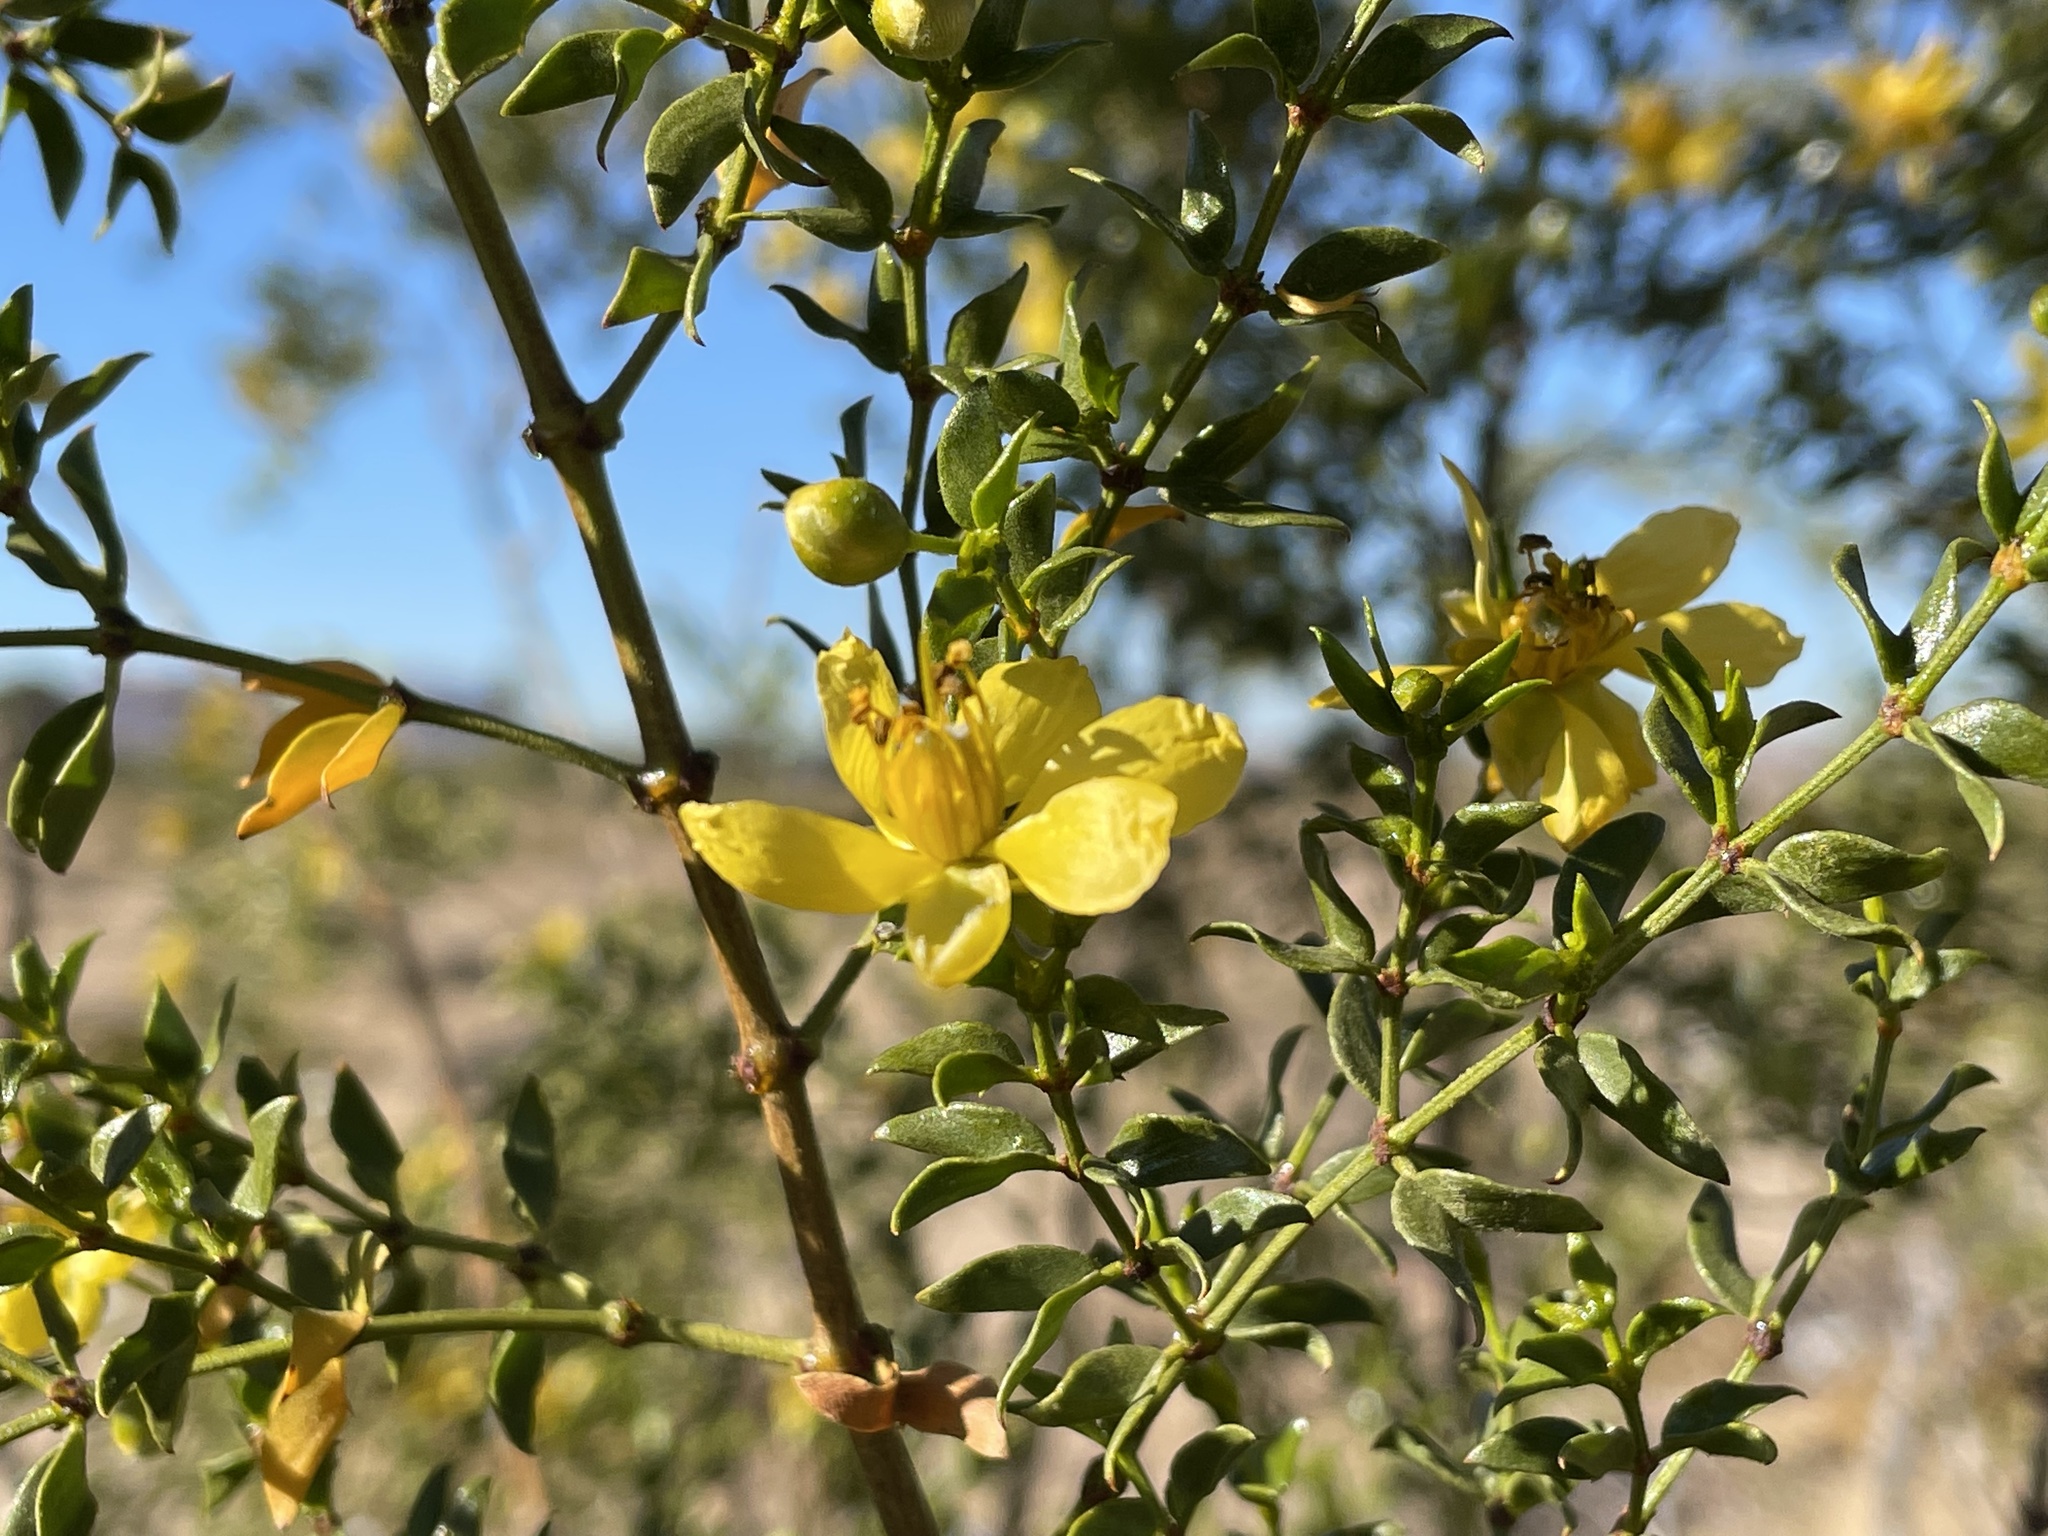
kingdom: Plantae
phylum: Tracheophyta
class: Magnoliopsida
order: Zygophyllales
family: Zygophyllaceae
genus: Larrea
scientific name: Larrea tridentata
